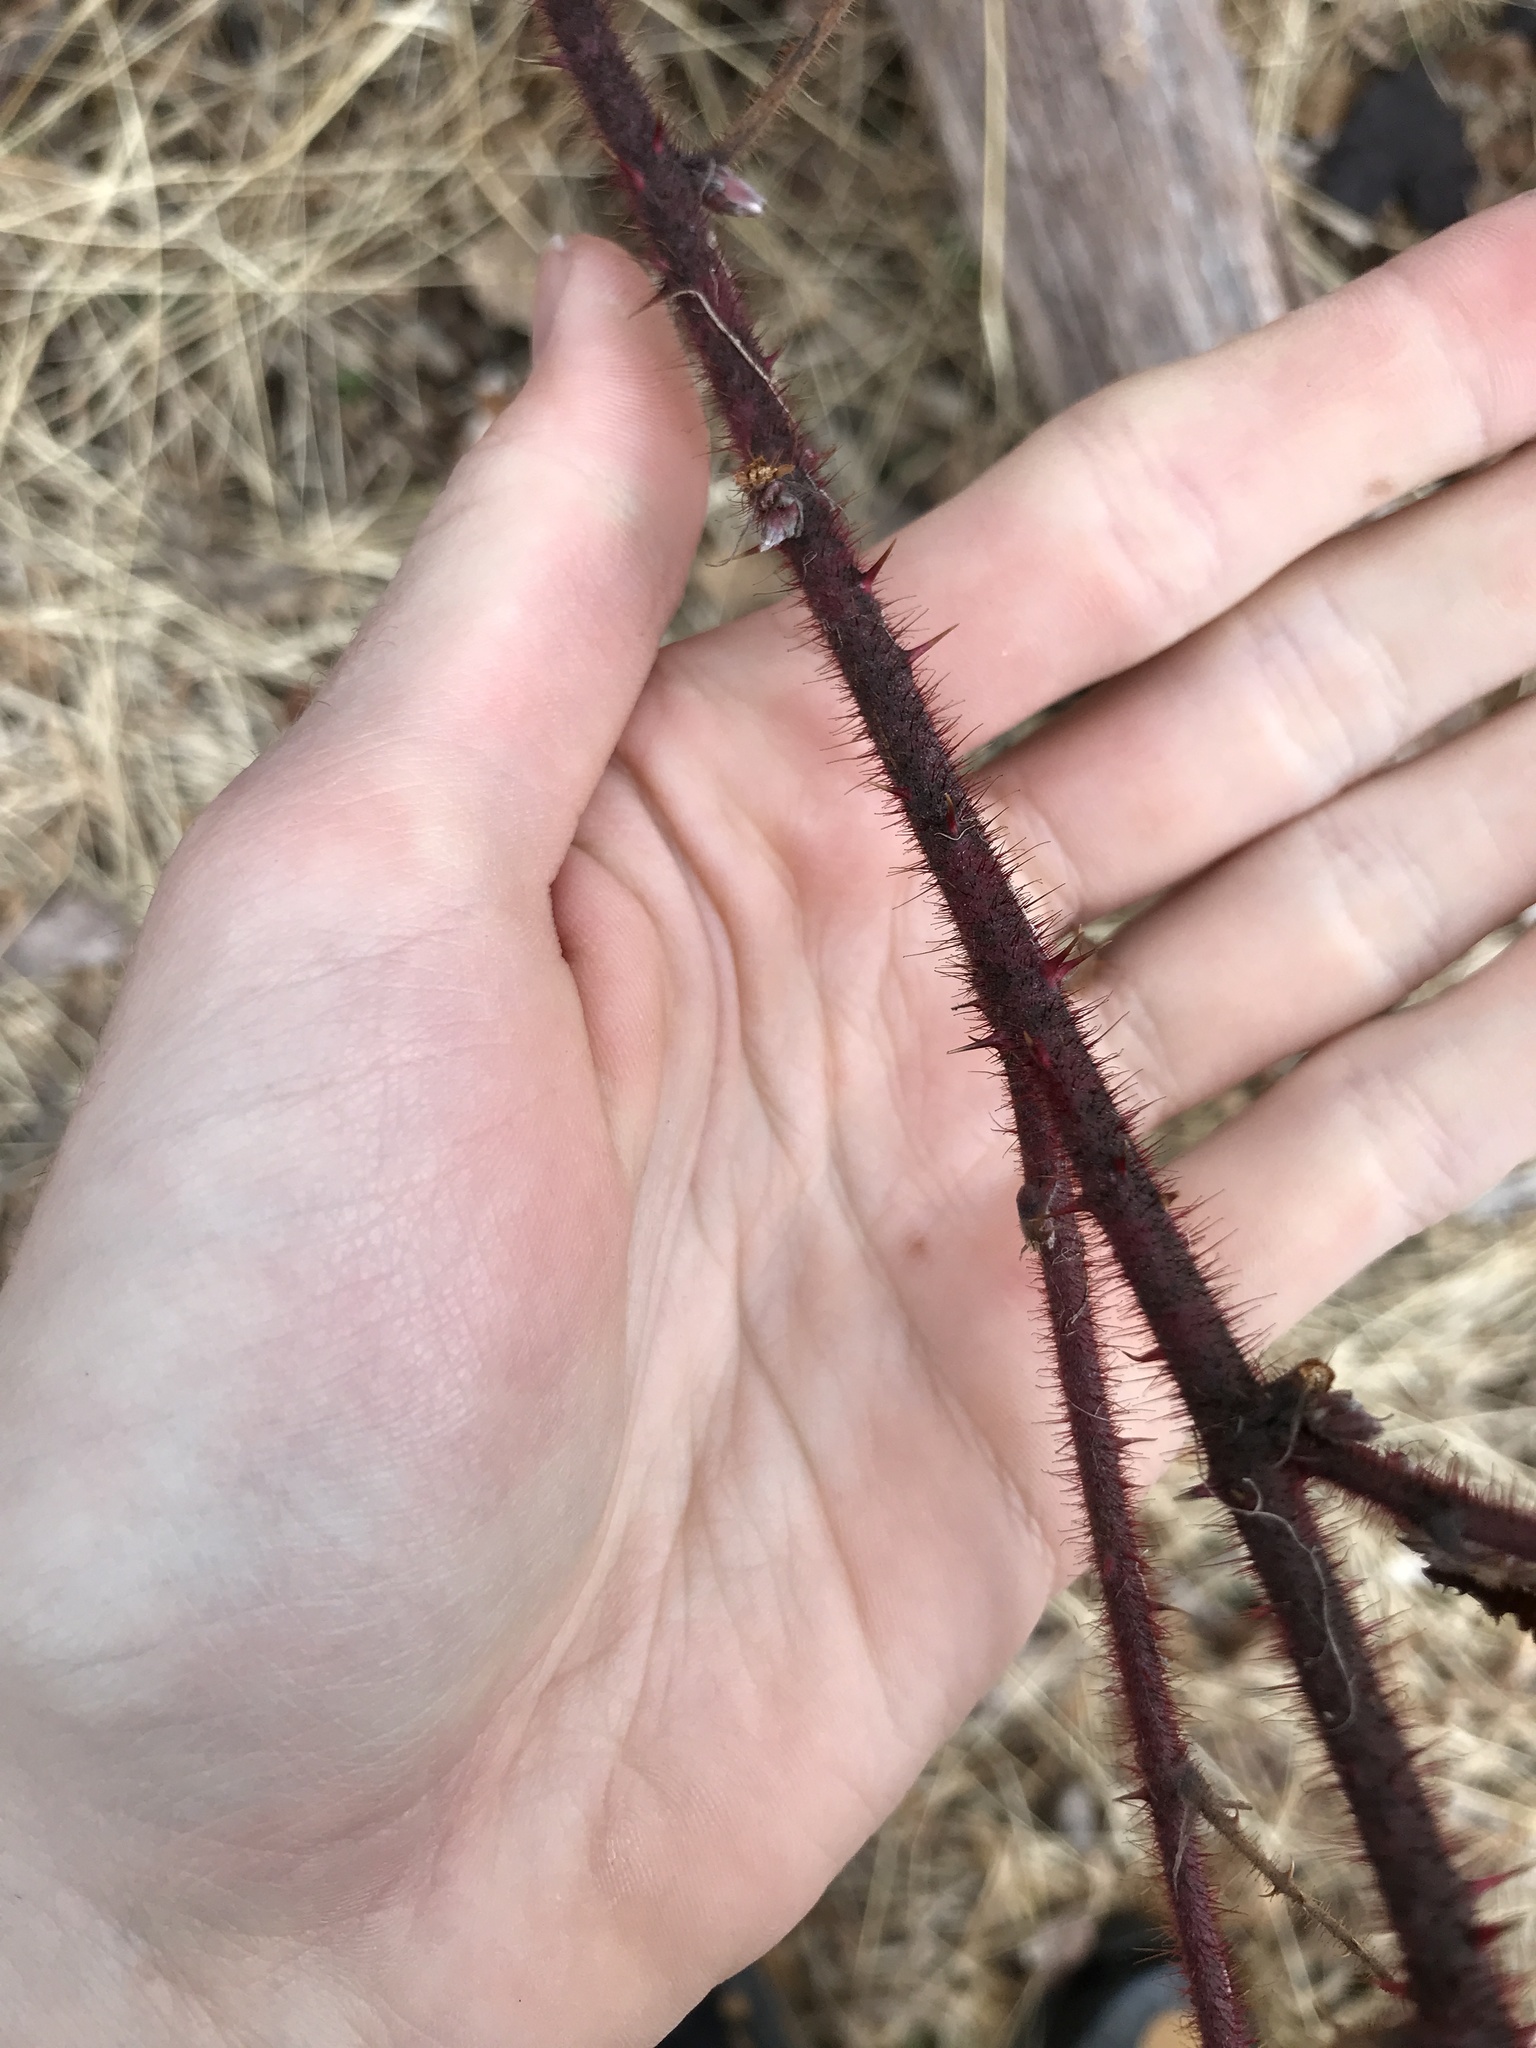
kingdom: Plantae
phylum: Tracheophyta
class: Magnoliopsida
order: Rosales
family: Rosaceae
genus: Rubus
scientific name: Rubus phoenicolasius
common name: Japanese wineberry
